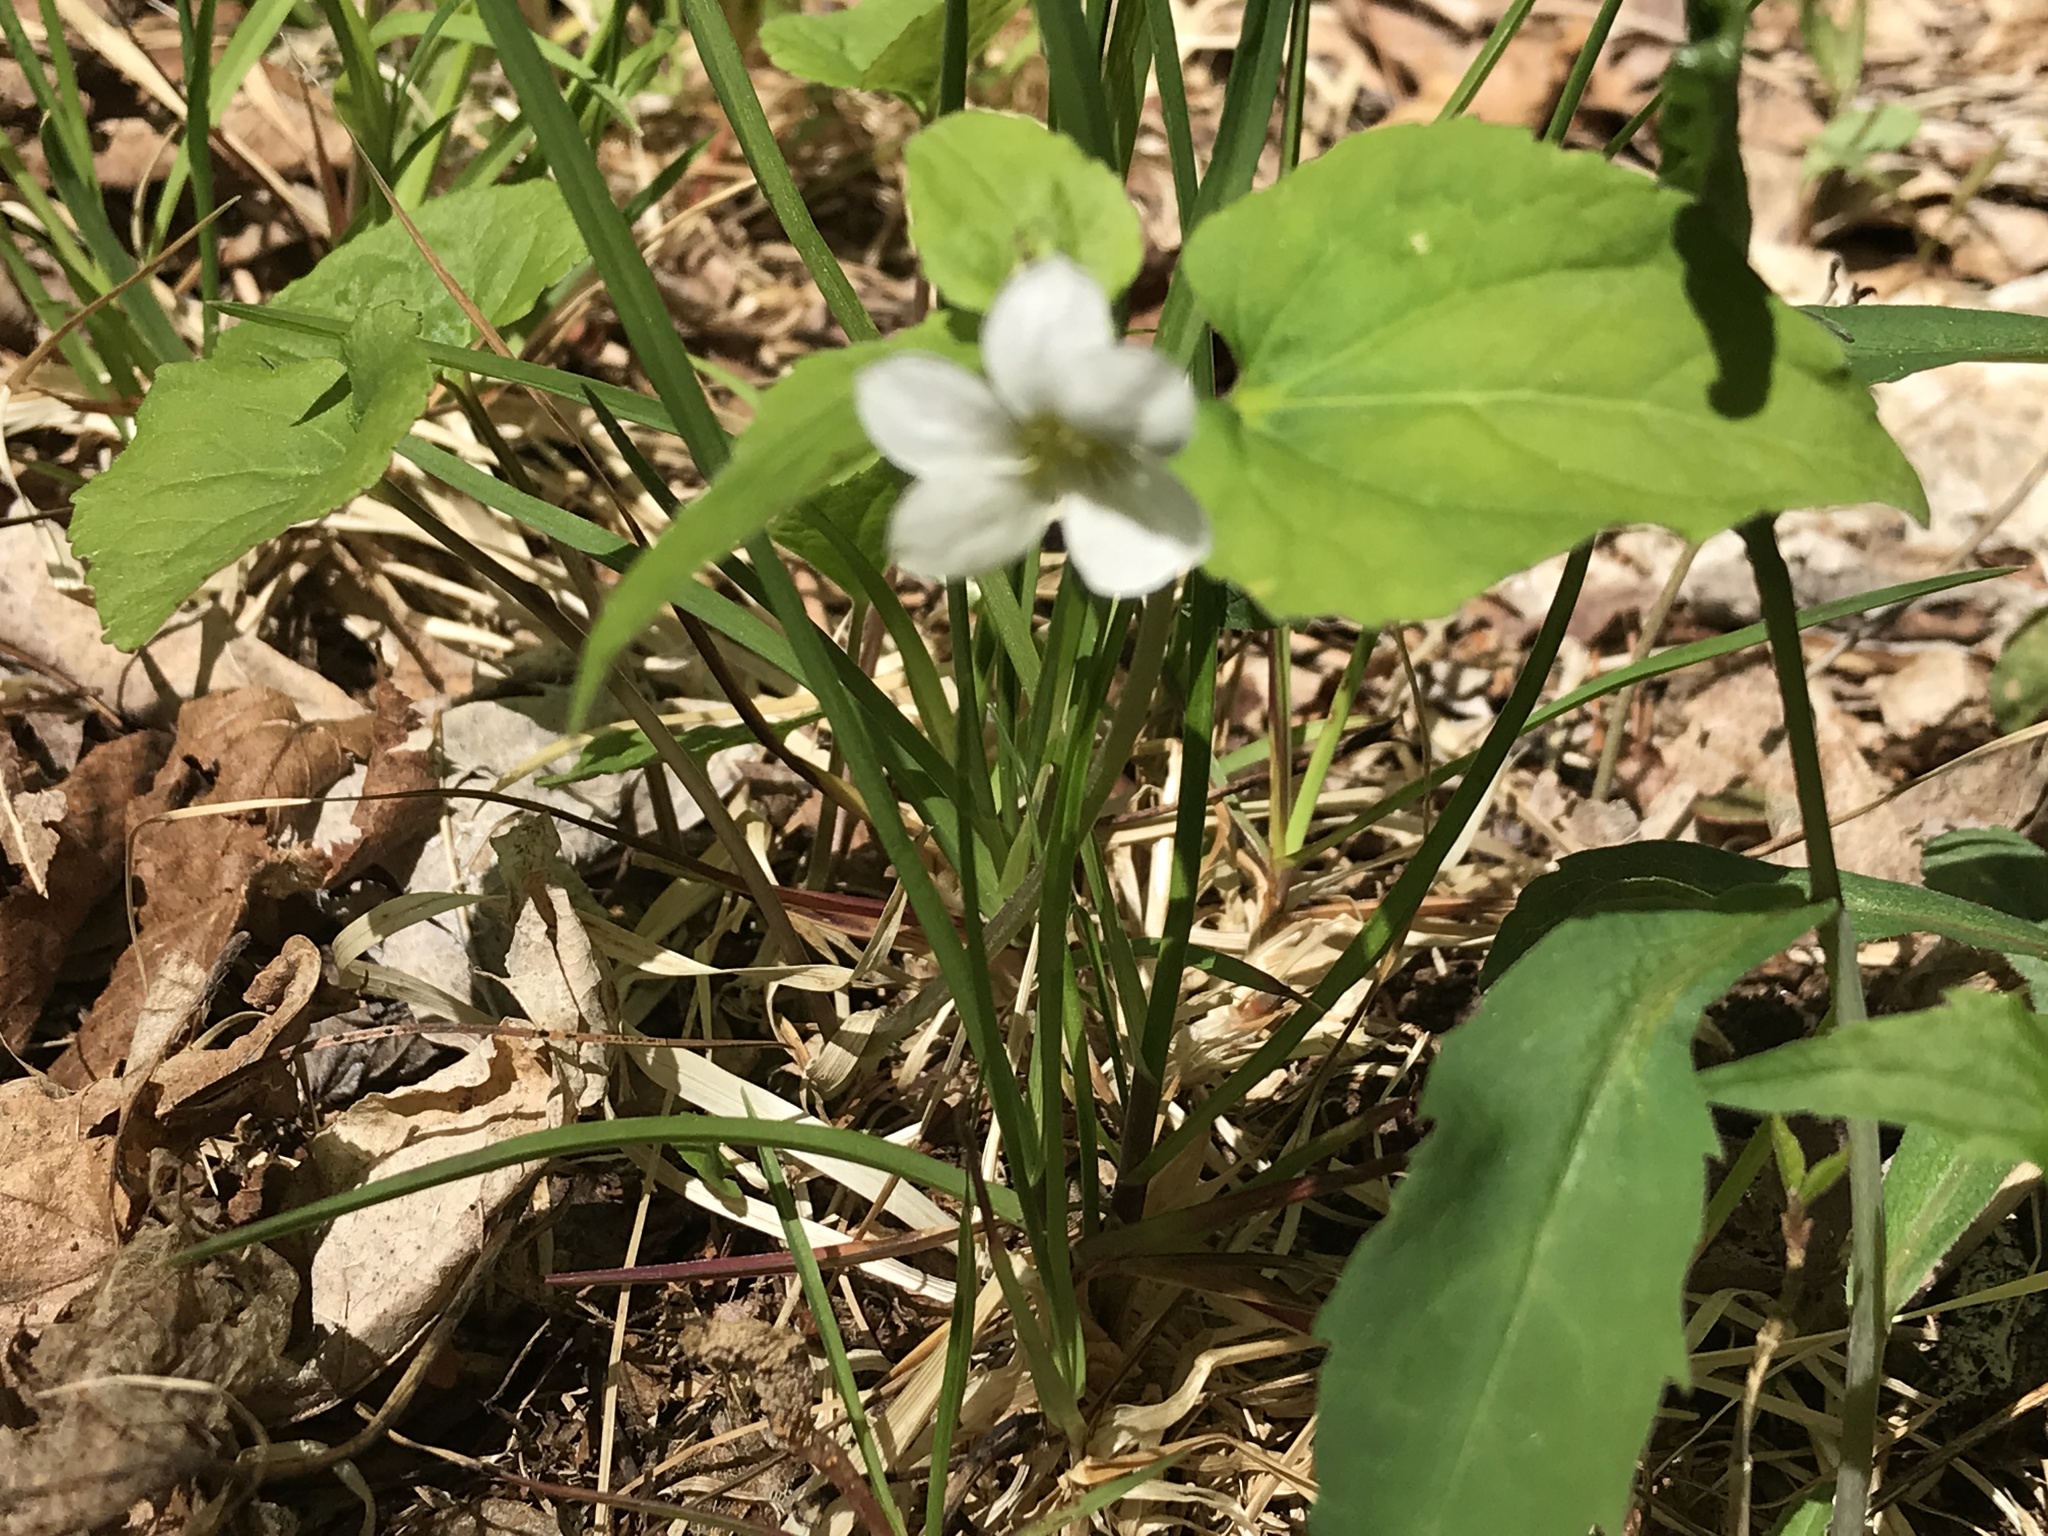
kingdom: Plantae
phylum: Tracheophyta
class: Magnoliopsida
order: Malpighiales
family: Violaceae
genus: Viola
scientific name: Viola canadensis
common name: Canada violet
